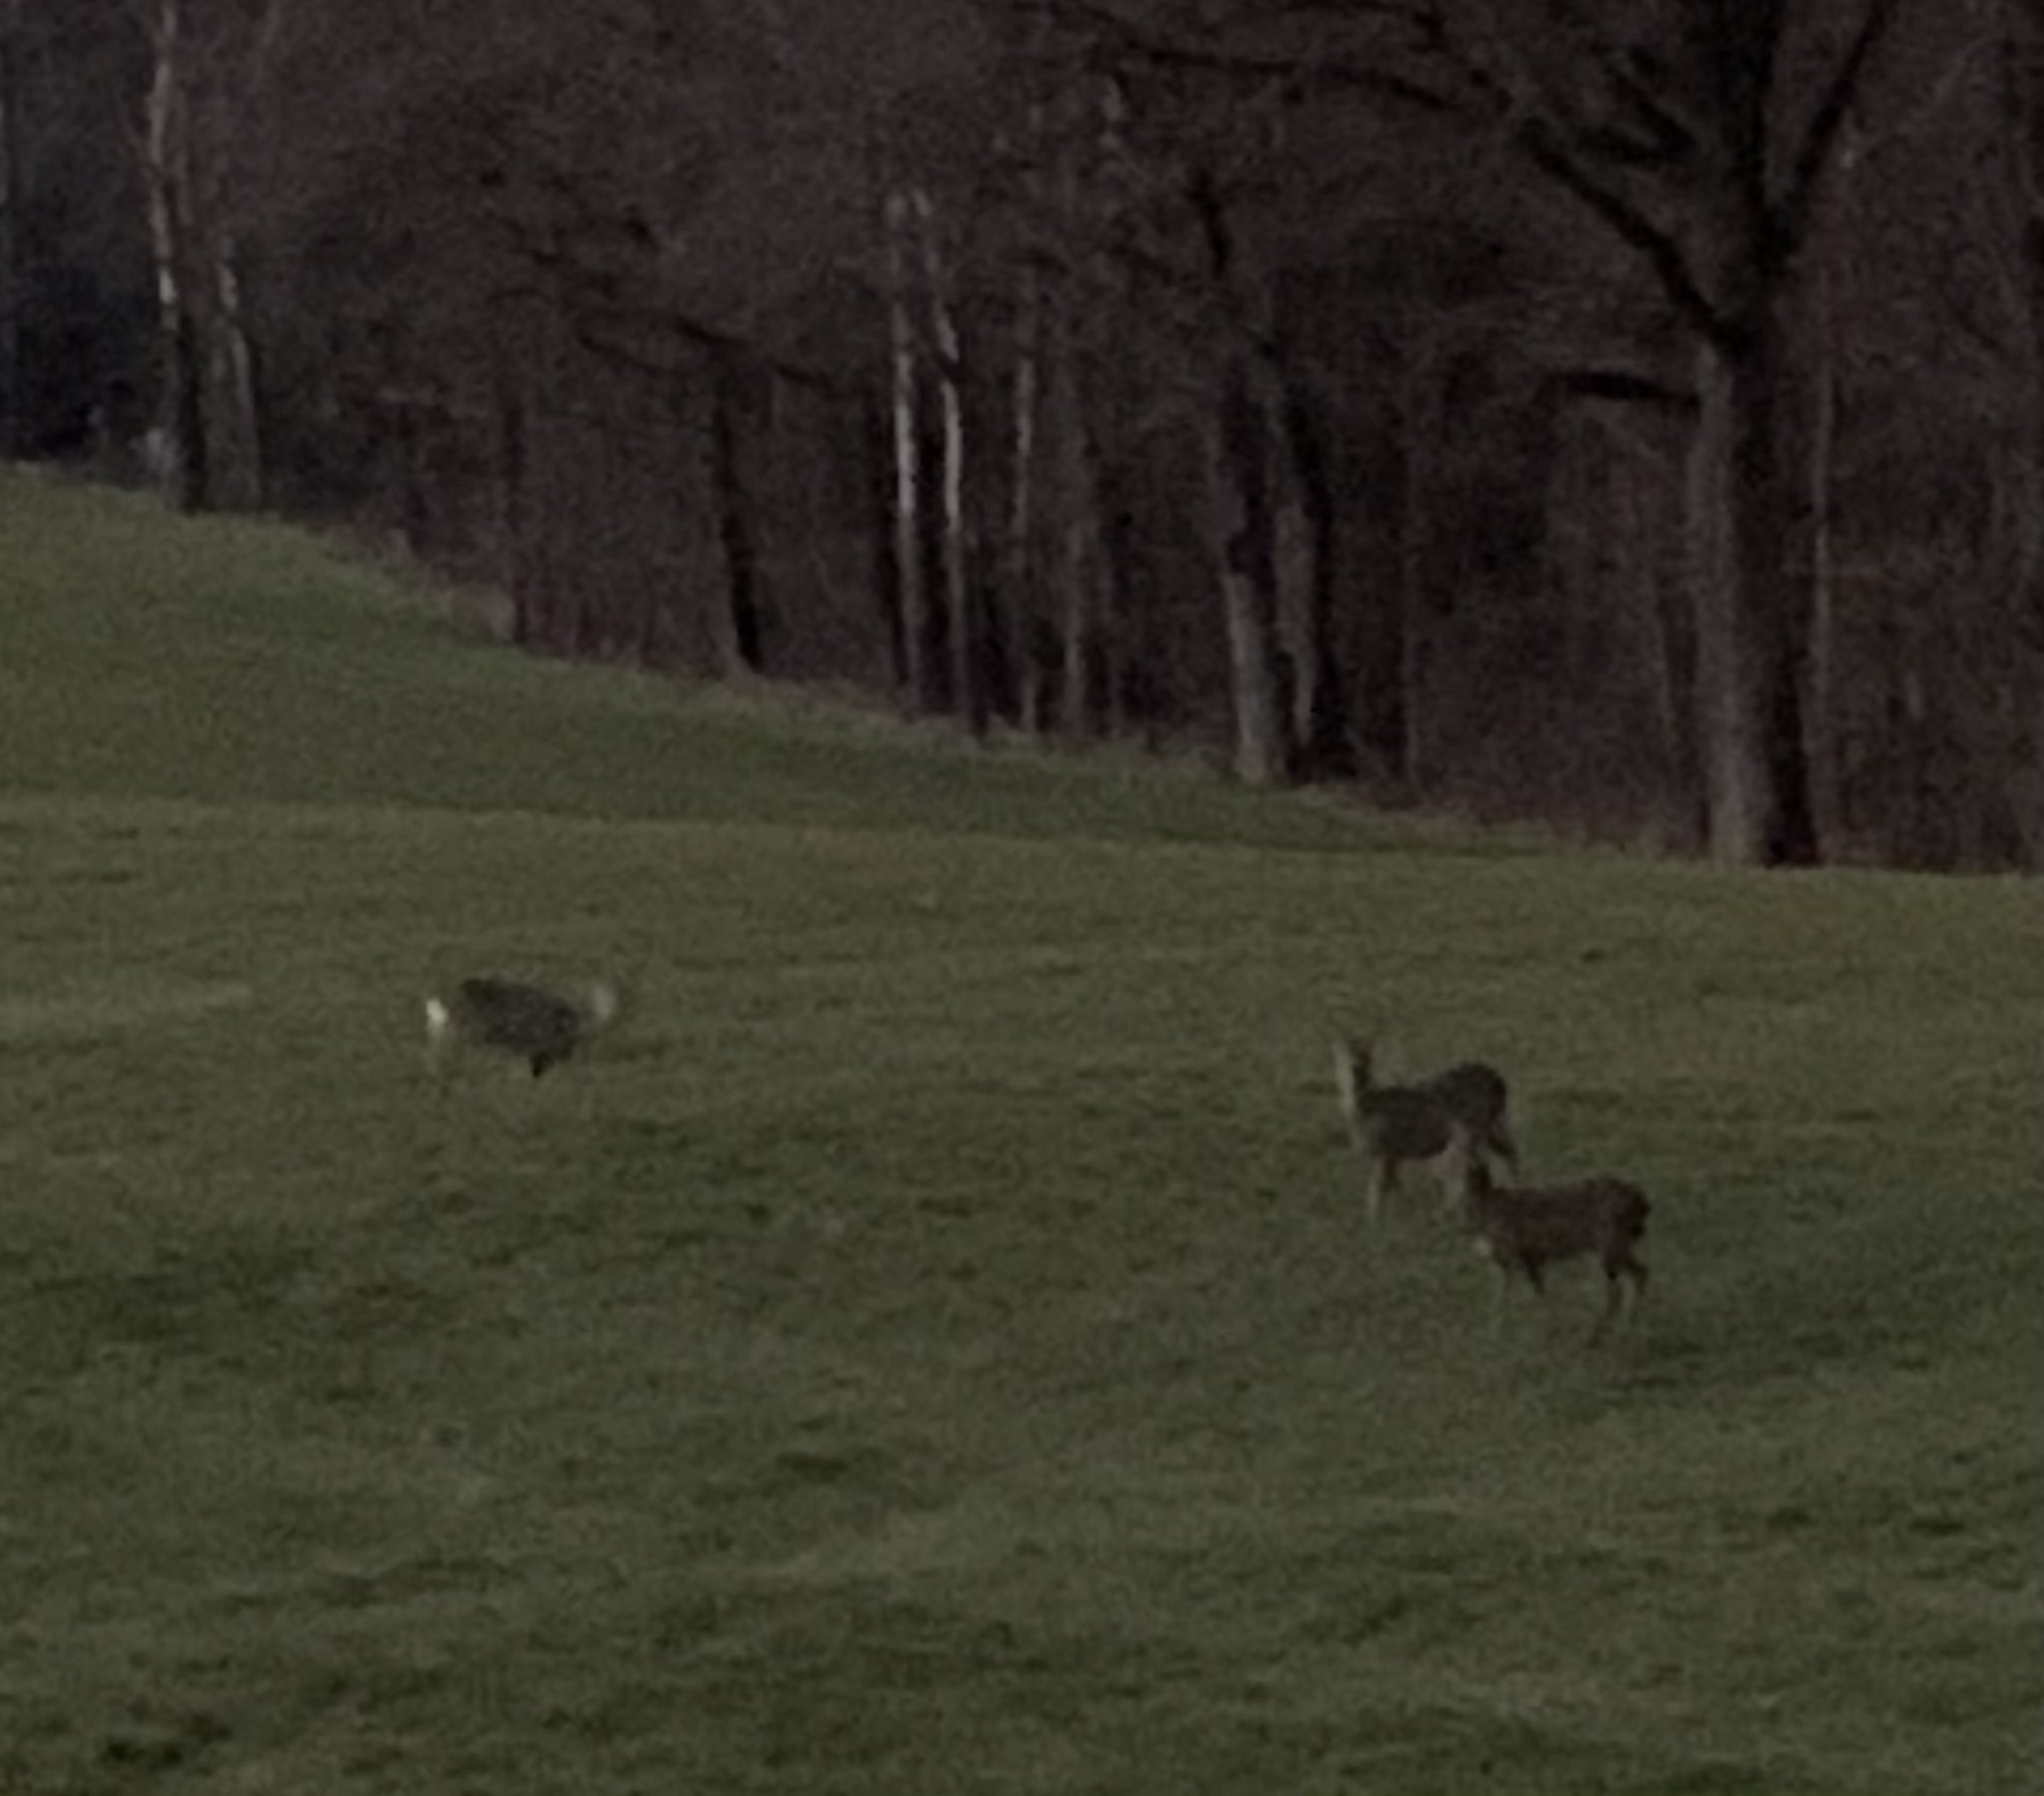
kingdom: Animalia
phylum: Chordata
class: Mammalia
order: Artiodactyla
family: Cervidae
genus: Capreolus
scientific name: Capreolus capreolus
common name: Western roe deer
